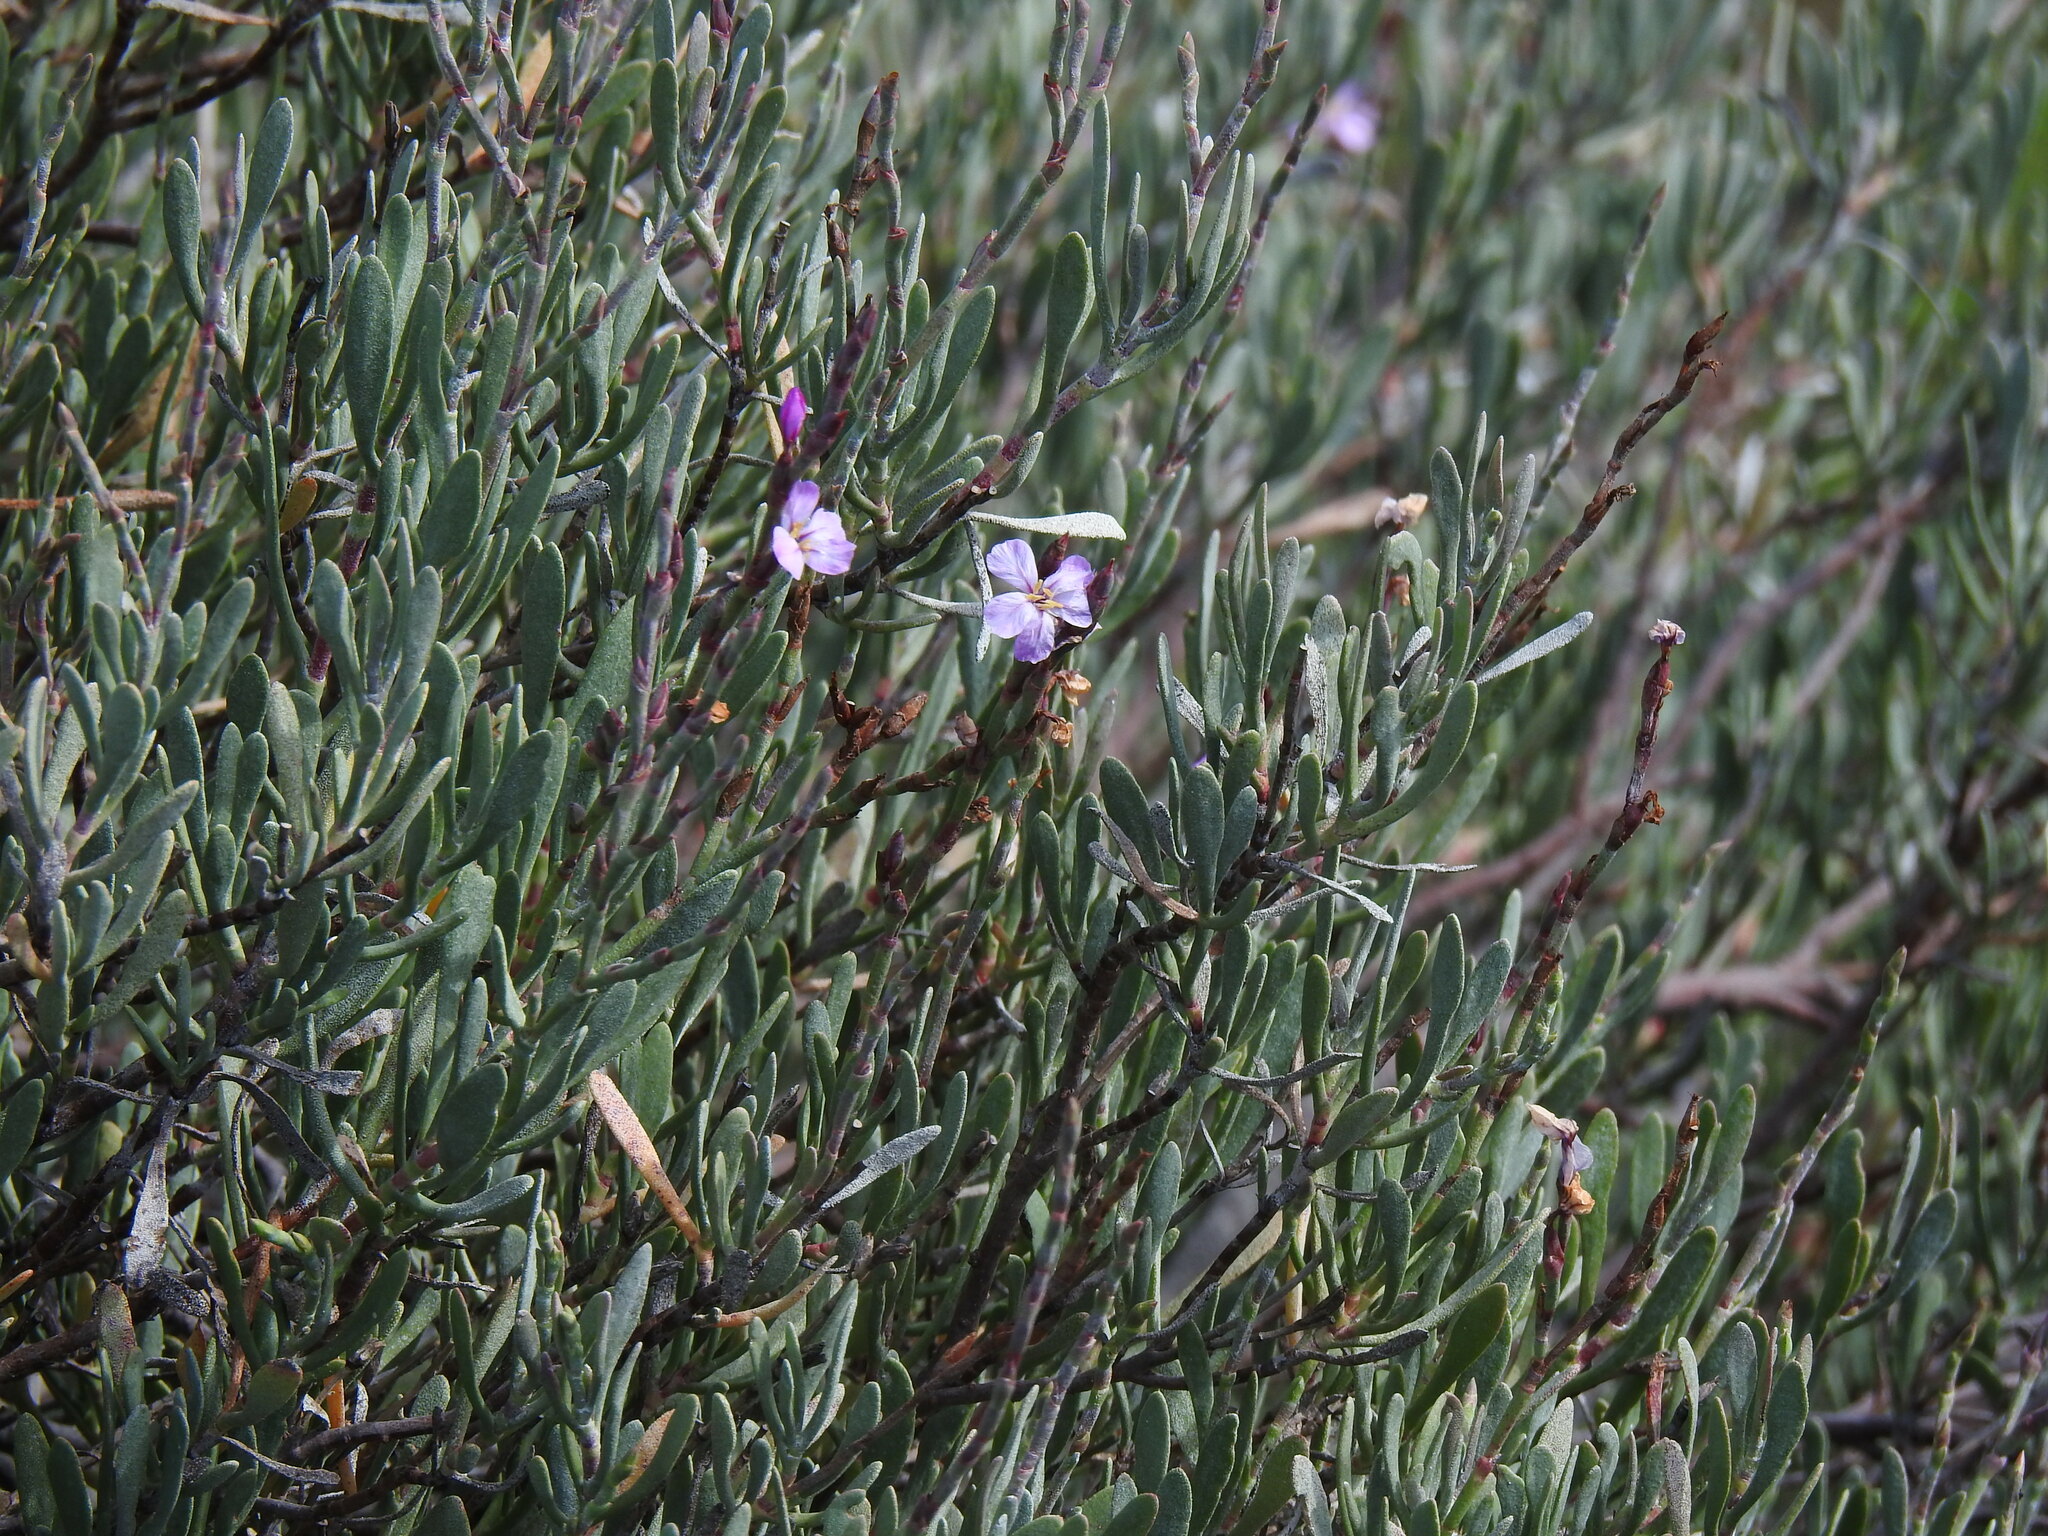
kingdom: Plantae
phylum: Tracheophyta
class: Magnoliopsida
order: Caryophyllales
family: Plumbaginaceae
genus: Limoniastrum
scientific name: Limoniastrum monopetalum
